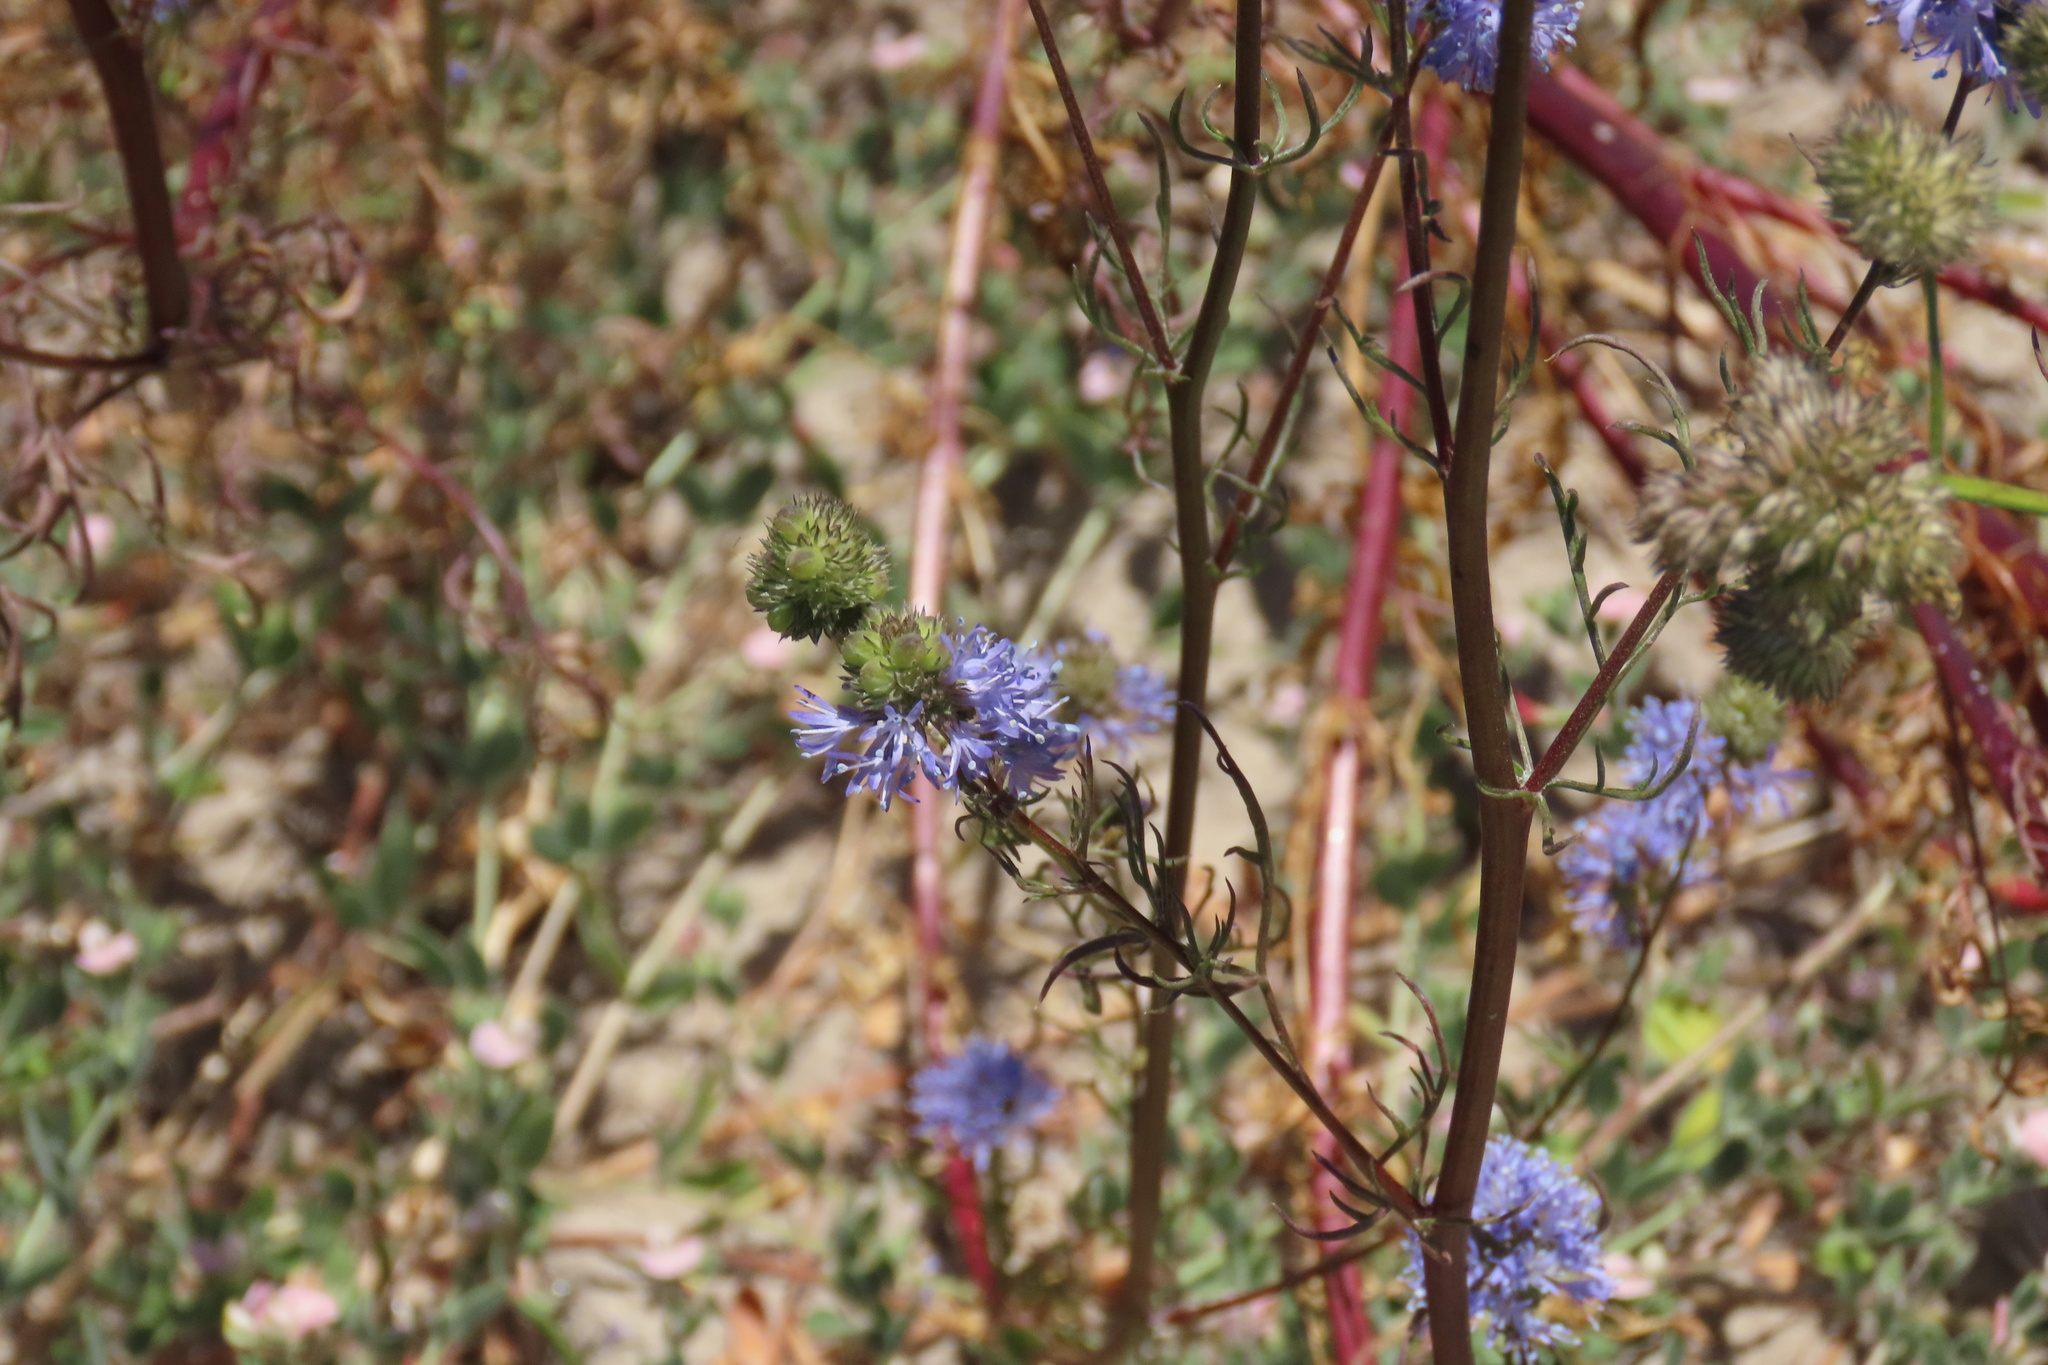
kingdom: Plantae
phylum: Tracheophyta
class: Magnoliopsida
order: Ericales
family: Polemoniaceae
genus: Gilia
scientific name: Gilia capitata
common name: Bluehead gilia
